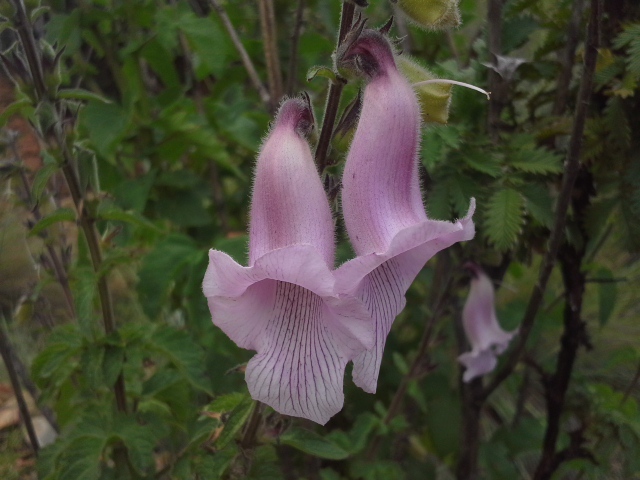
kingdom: Plantae
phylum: Tracheophyta
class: Magnoliopsida
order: Lamiales
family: Pedaliaceae
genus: Sesamum
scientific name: Sesamum trilobum
